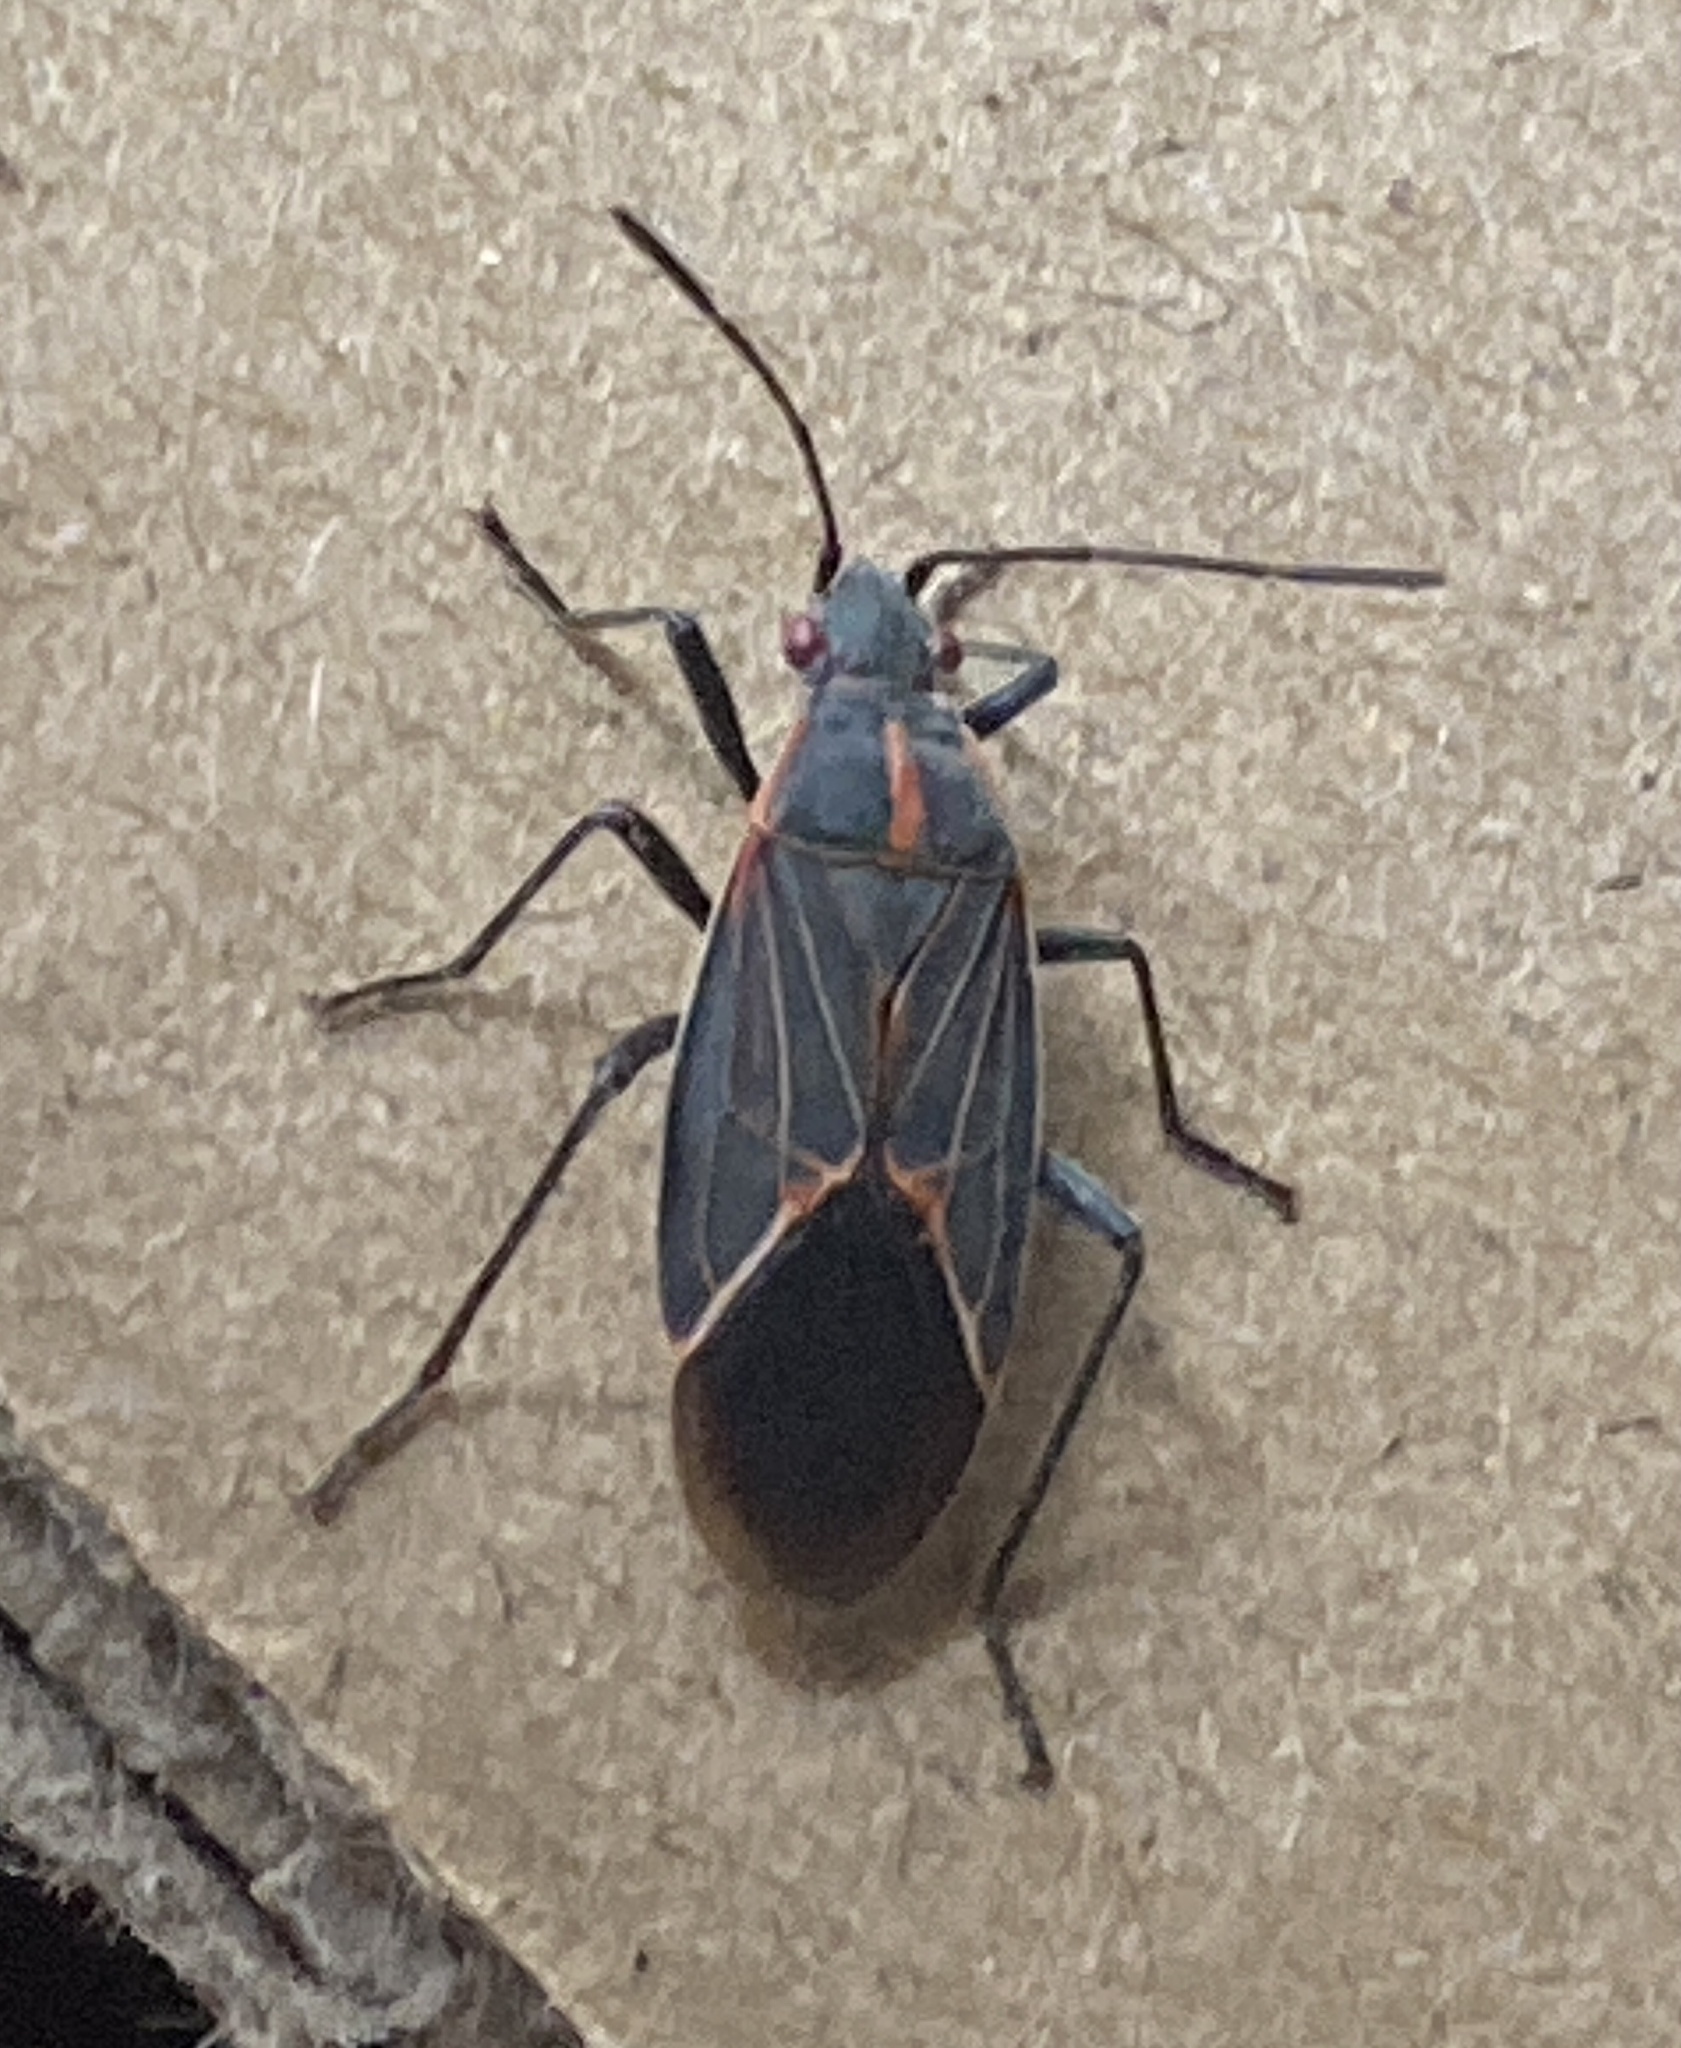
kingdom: Animalia
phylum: Arthropoda
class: Insecta
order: Hemiptera
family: Rhopalidae
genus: Boisea
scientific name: Boisea rubrolineata
